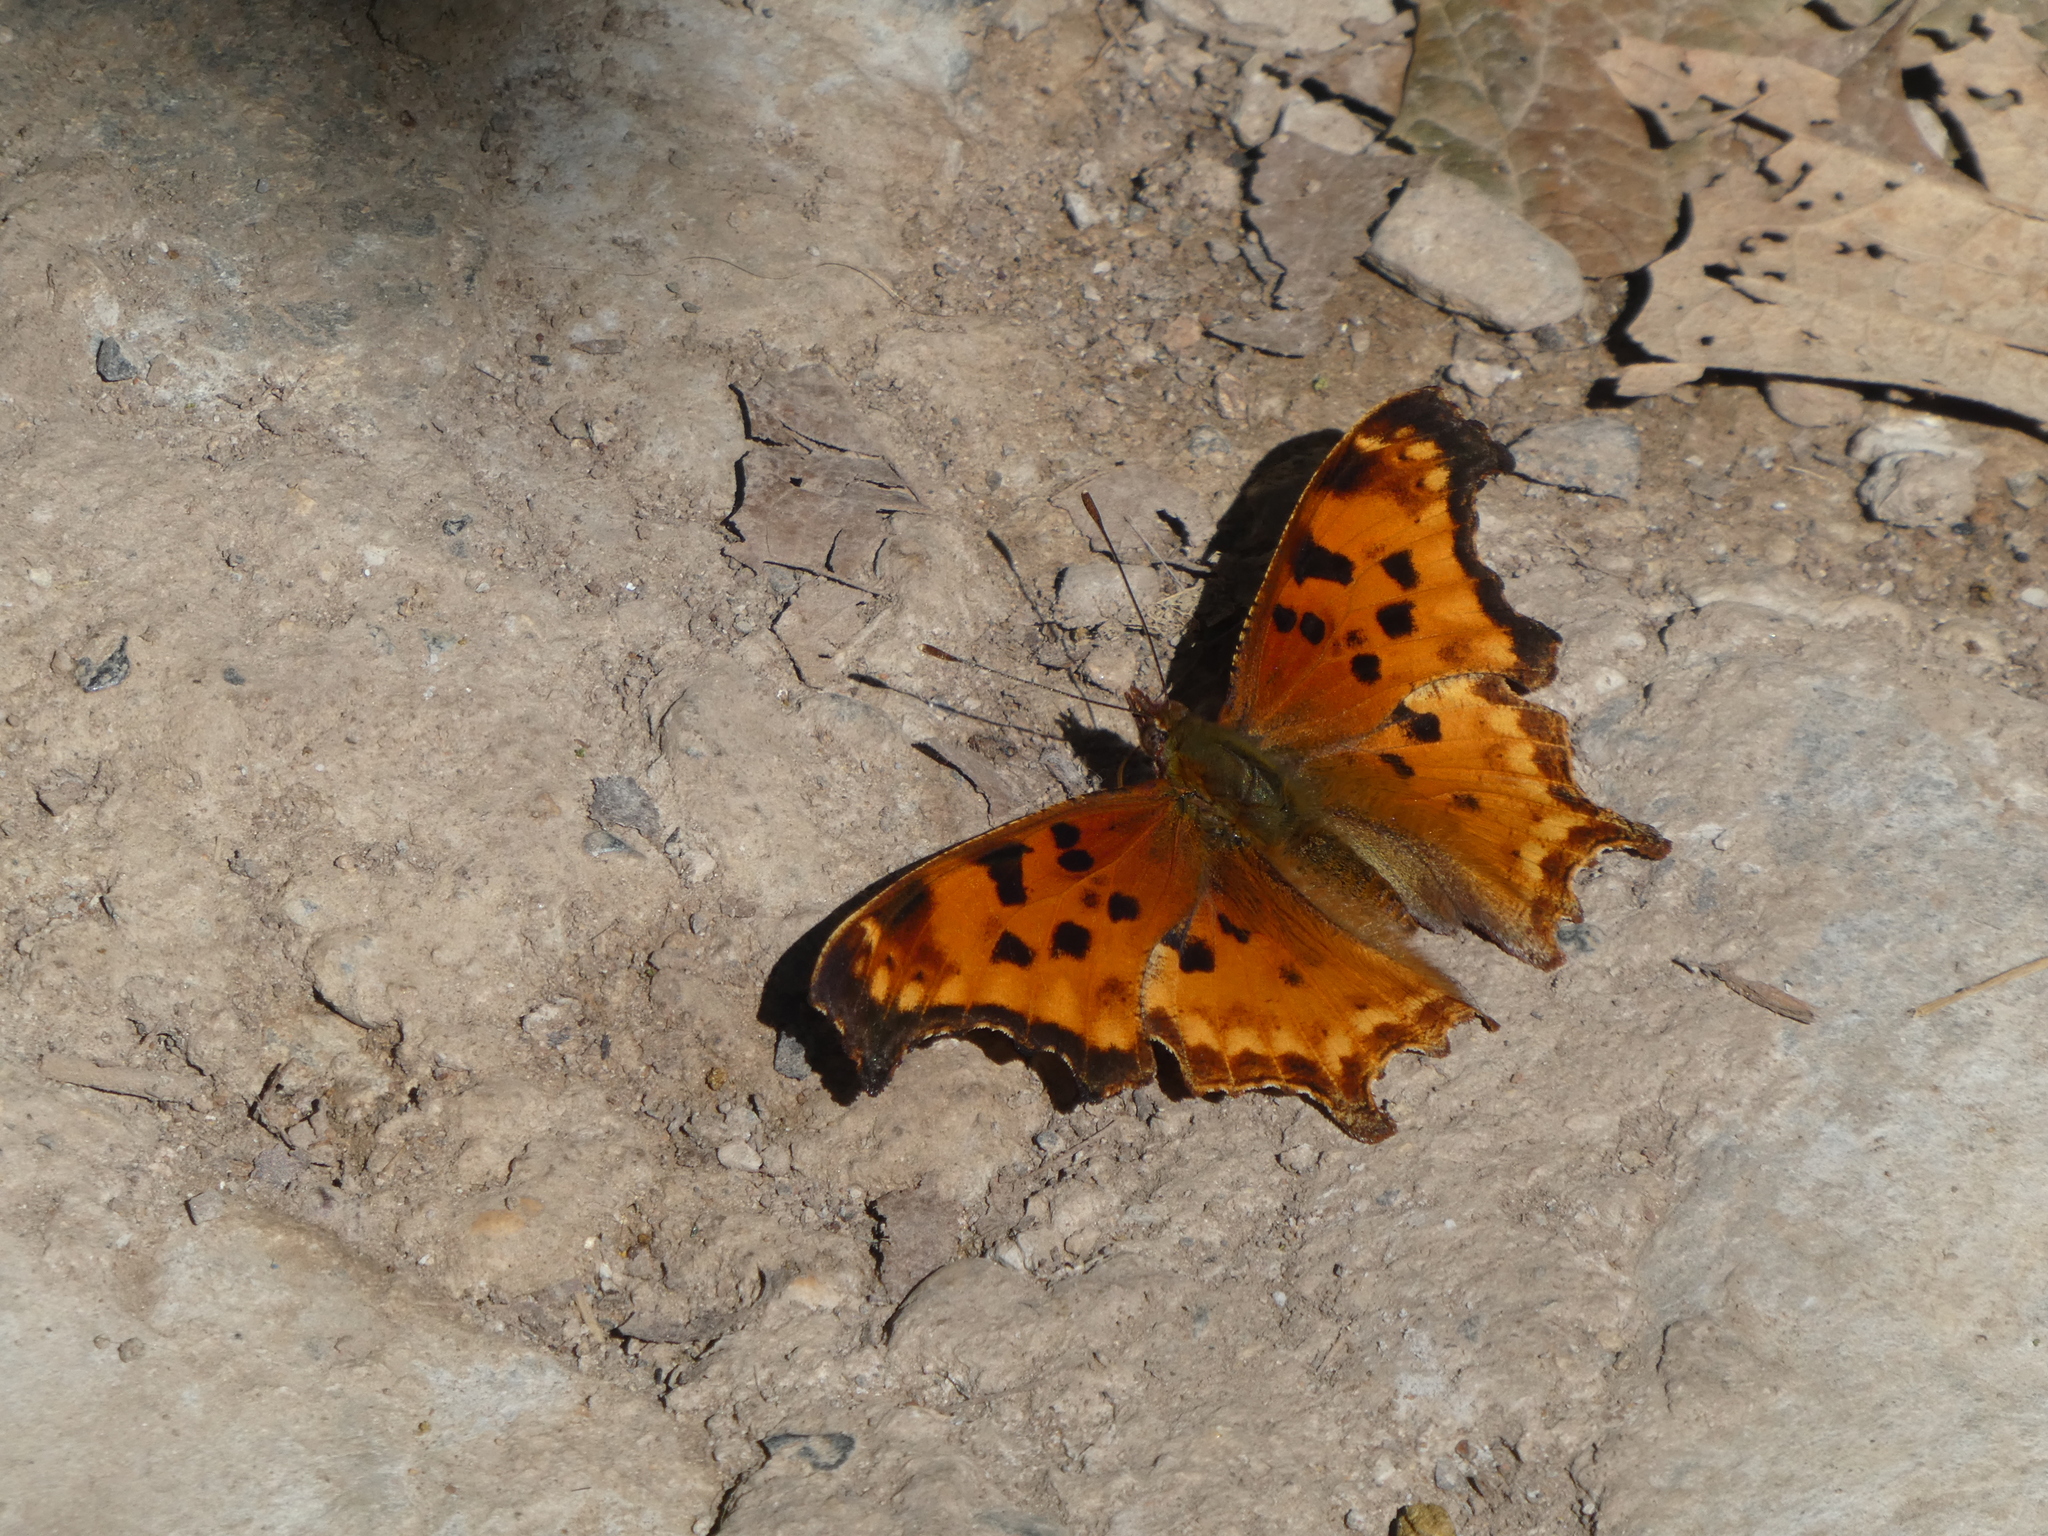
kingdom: Animalia
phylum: Arthropoda
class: Insecta
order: Lepidoptera
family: Nymphalidae
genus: Polygonia
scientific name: Polygonia g-argenteum
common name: Mexican anglewing
